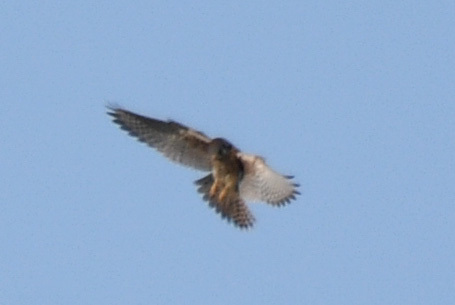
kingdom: Animalia
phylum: Chordata
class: Aves
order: Falconiformes
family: Falconidae
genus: Falco
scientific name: Falco sparverius
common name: American kestrel
